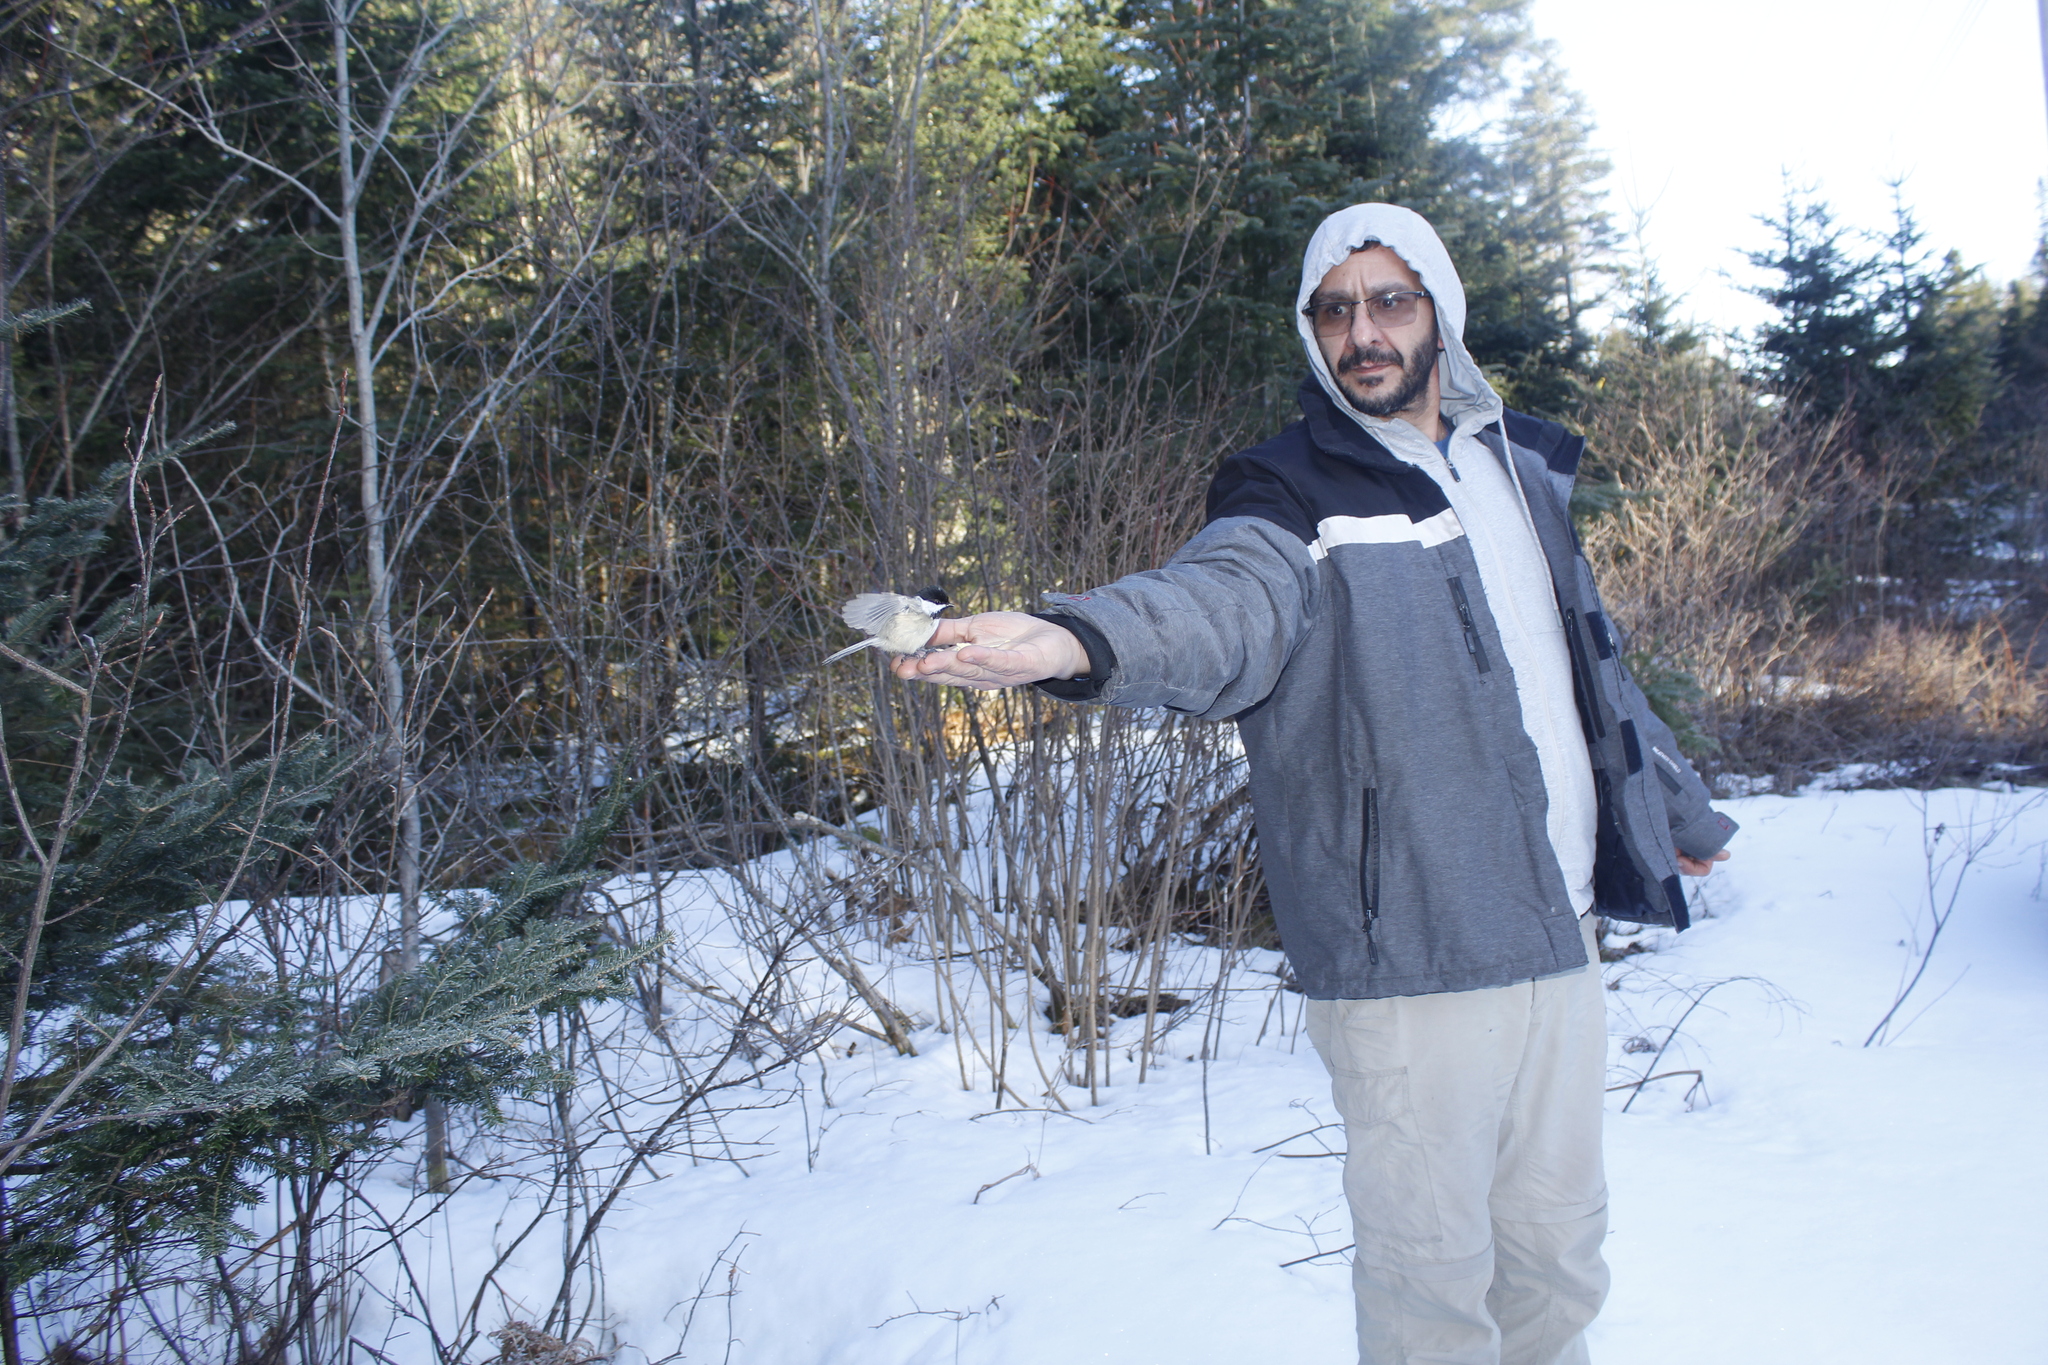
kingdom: Animalia
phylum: Chordata
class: Aves
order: Passeriformes
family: Paridae
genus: Poecile
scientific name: Poecile atricapillus
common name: Black-capped chickadee
